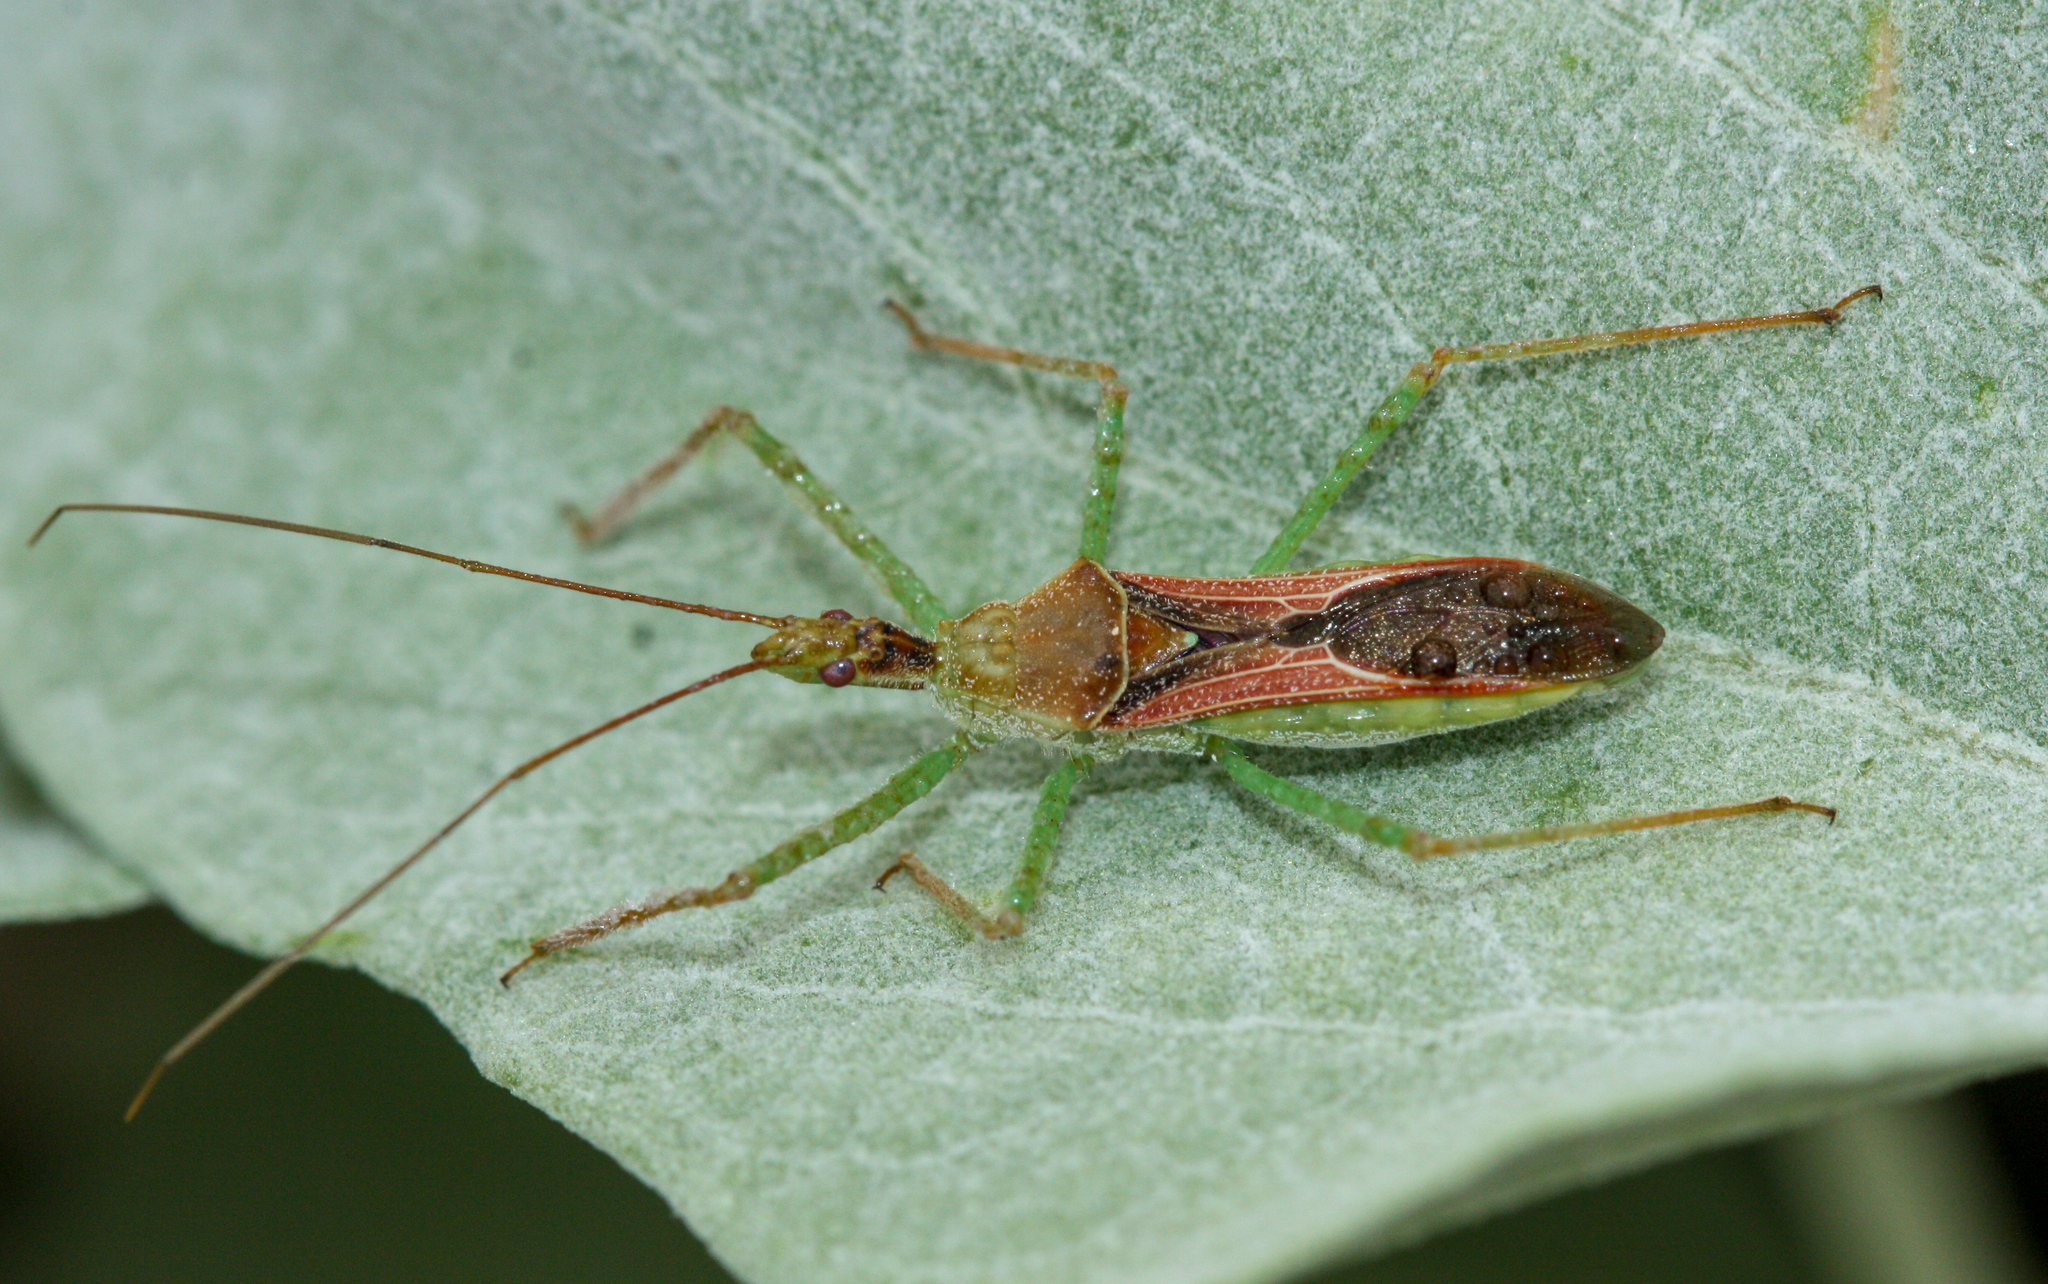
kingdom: Animalia
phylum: Arthropoda
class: Insecta
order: Hemiptera
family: Reduviidae
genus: Zelus
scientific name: Zelus renardii
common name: Assassin bug
